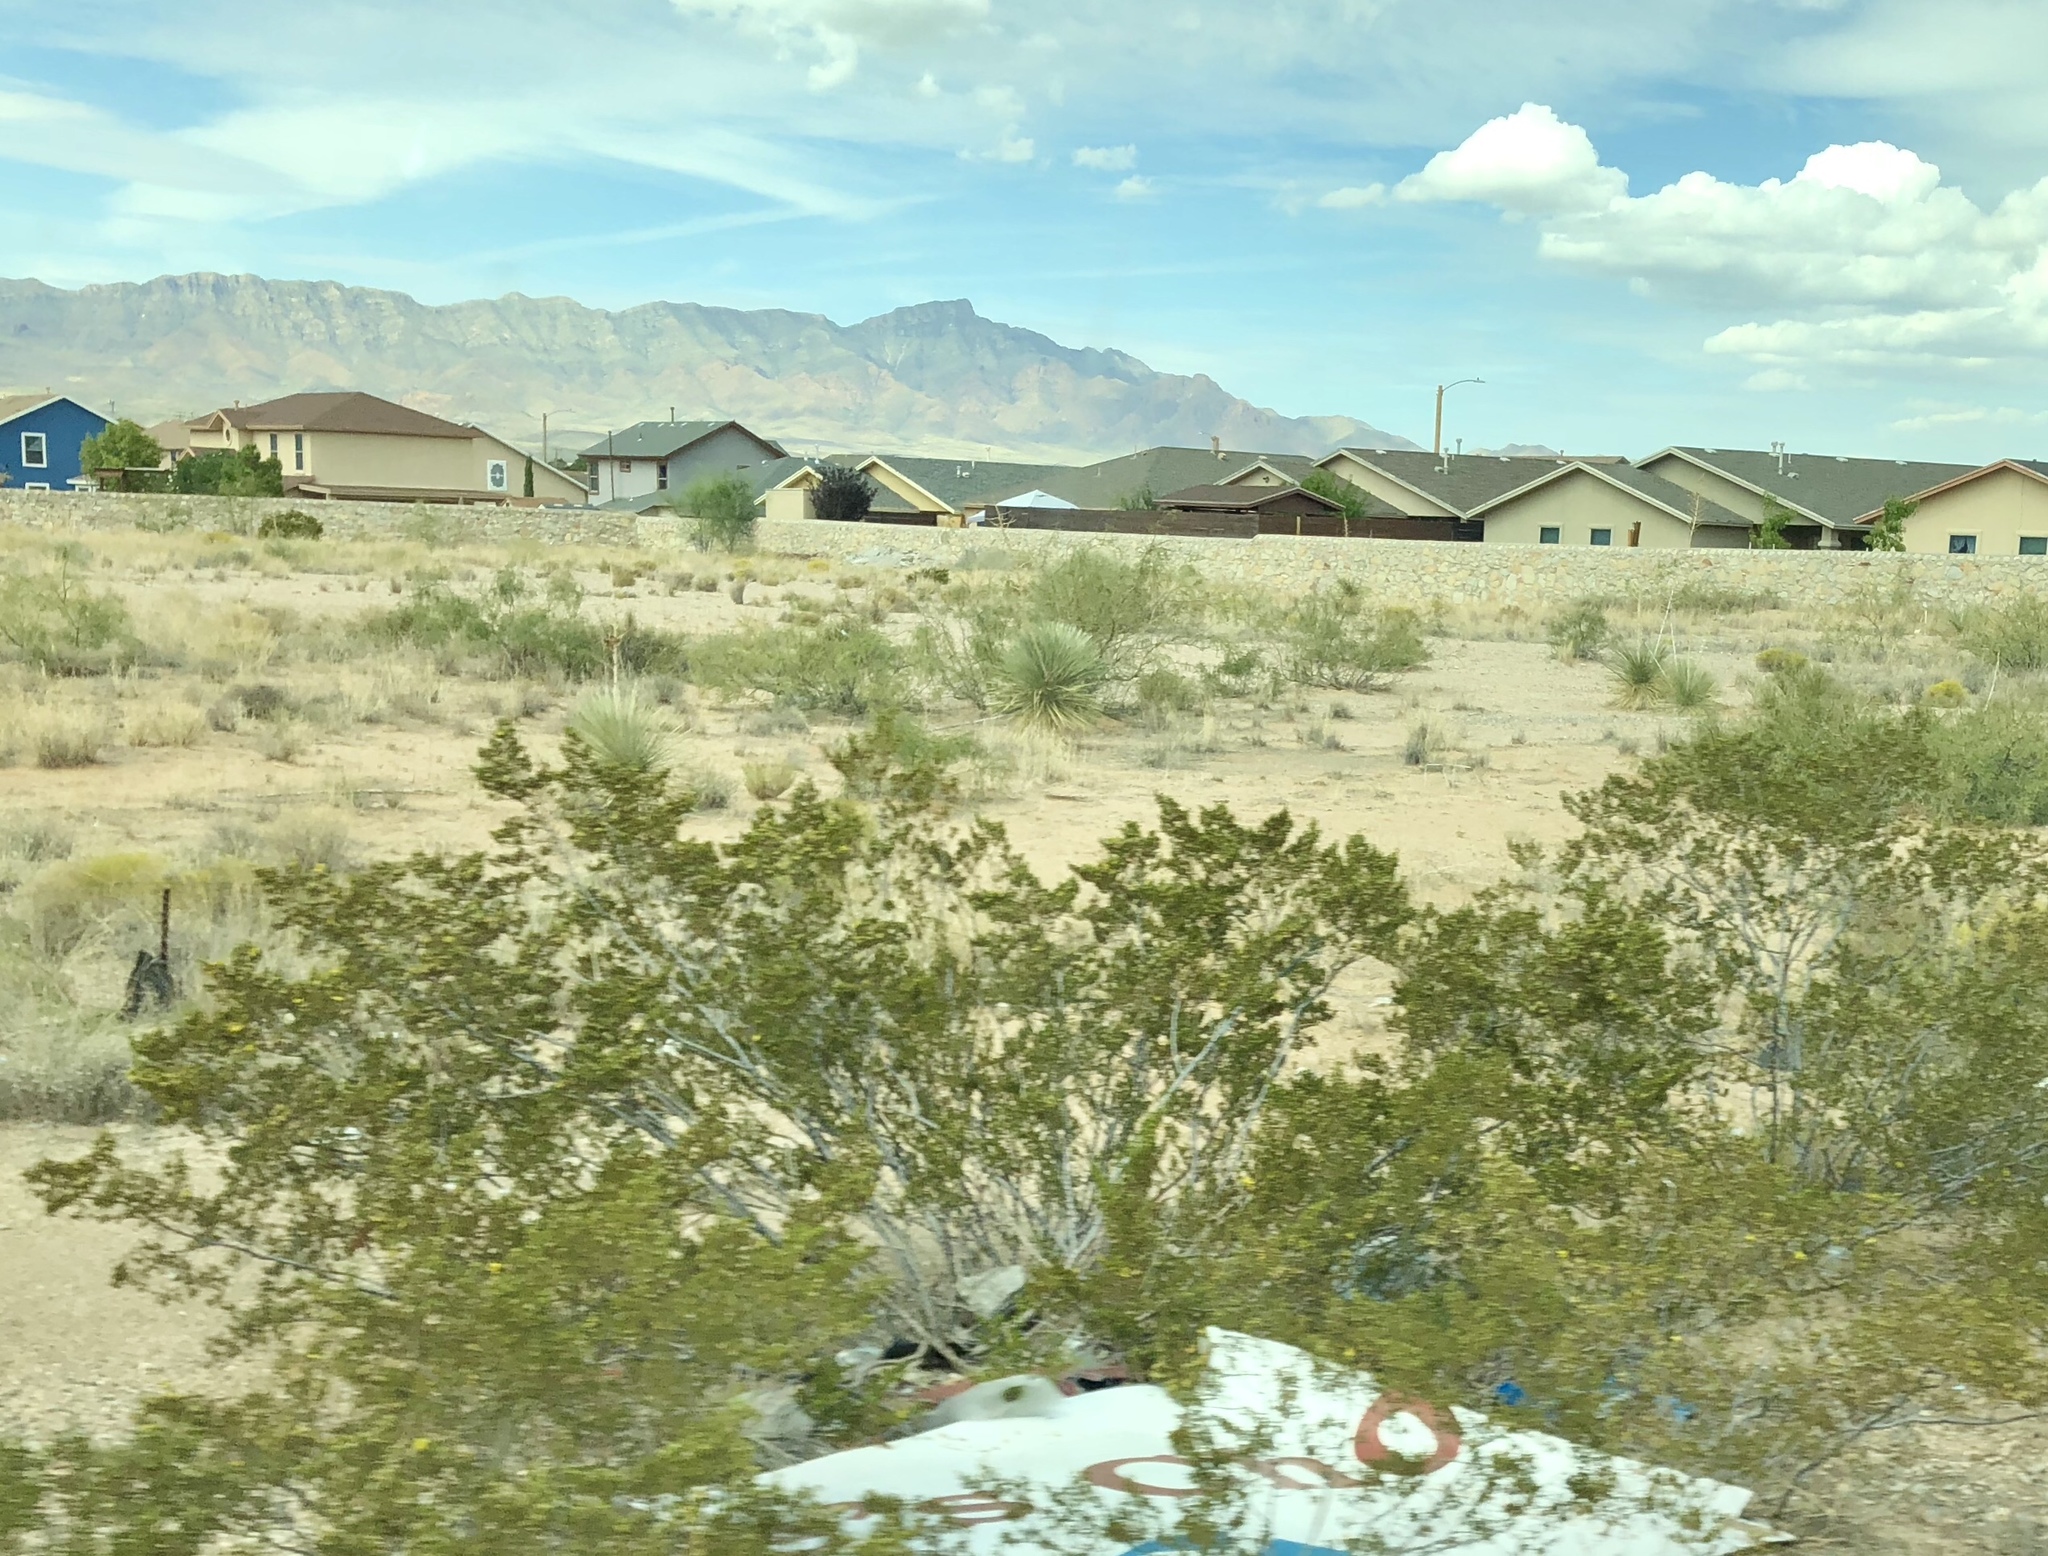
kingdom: Plantae
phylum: Tracheophyta
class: Magnoliopsida
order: Zygophyllales
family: Zygophyllaceae
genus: Larrea
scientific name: Larrea tridentata
